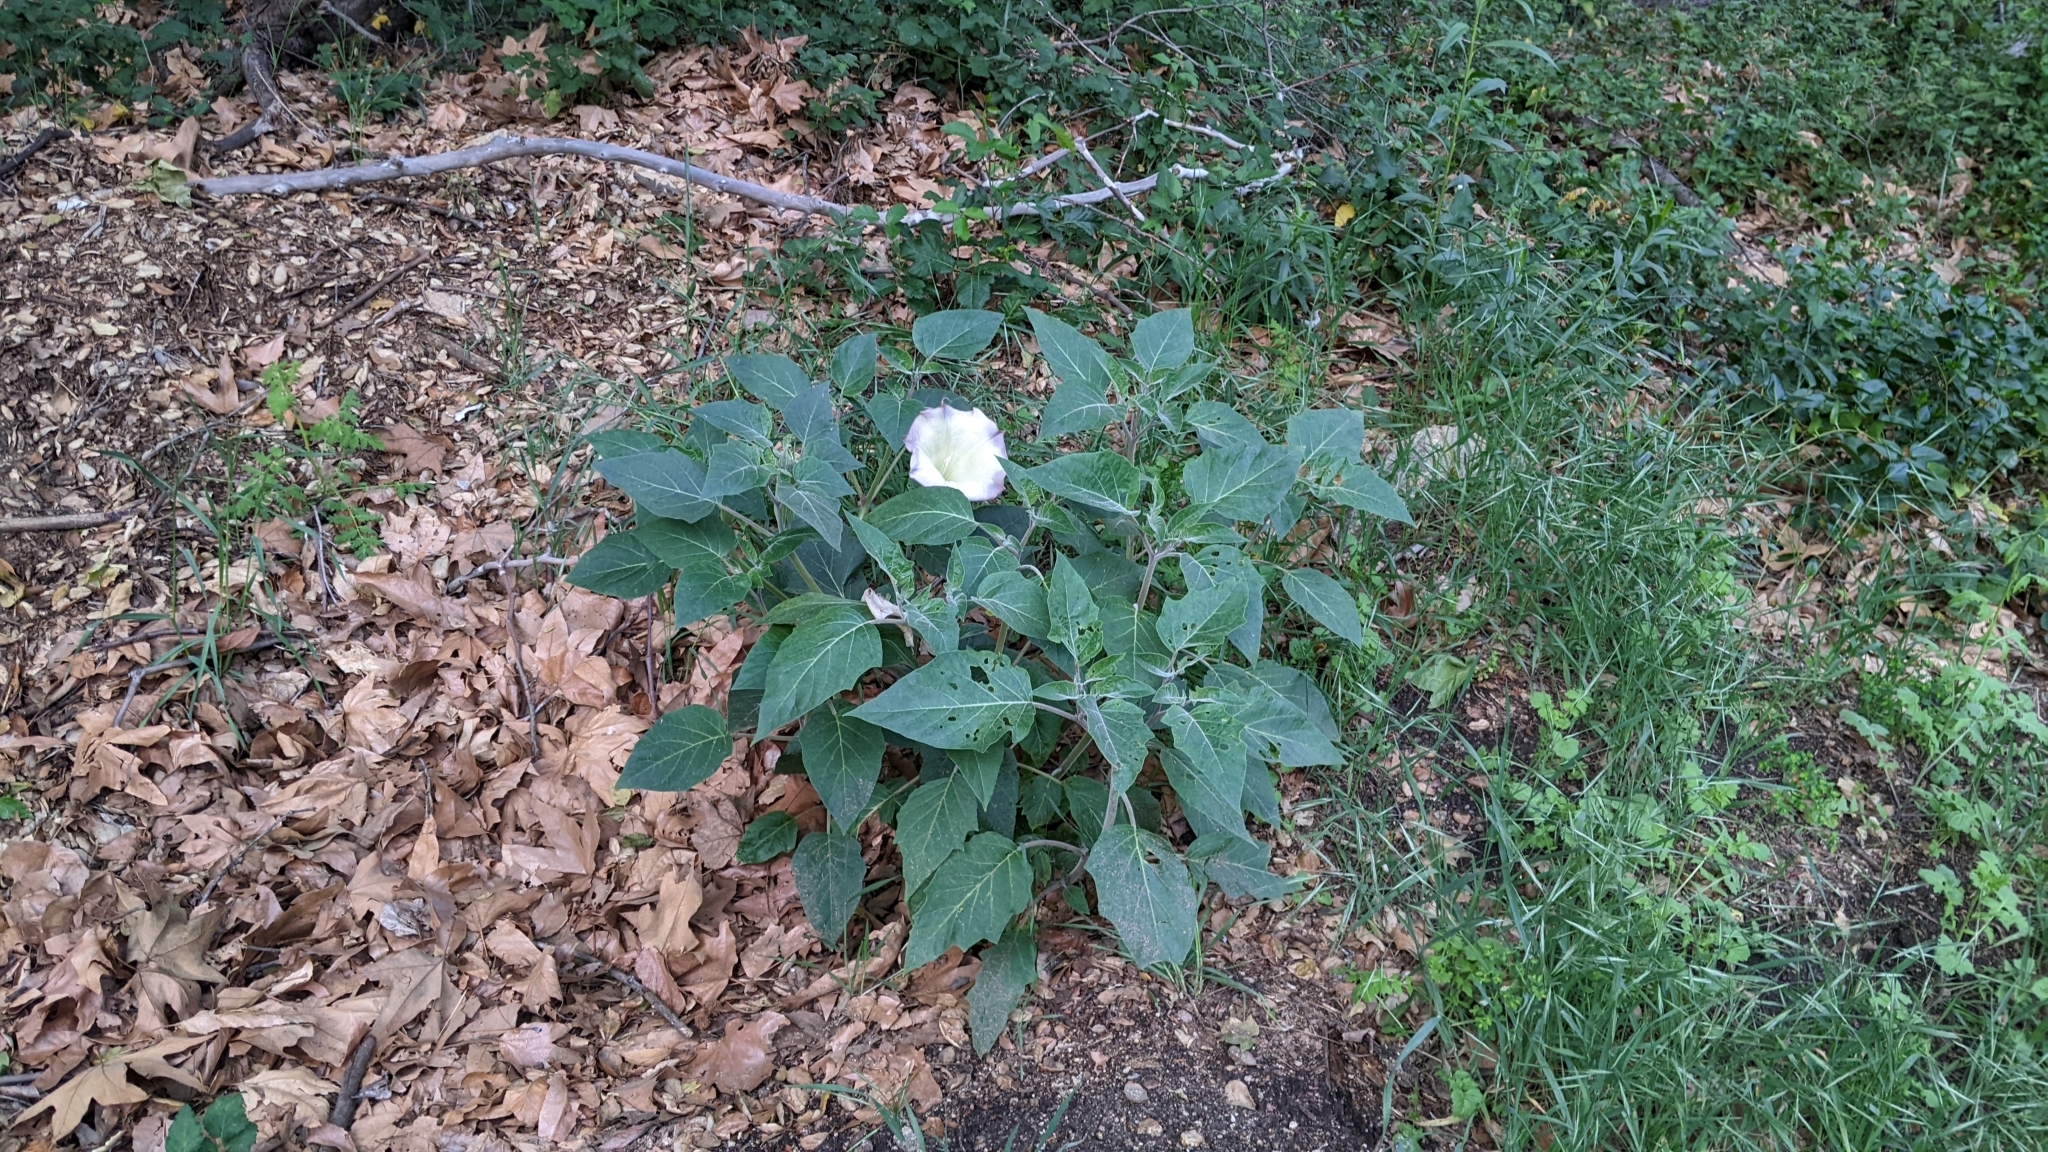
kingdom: Plantae
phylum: Tracheophyta
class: Magnoliopsida
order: Solanales
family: Solanaceae
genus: Datura
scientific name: Datura wrightii
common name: Sacred thorn-apple
